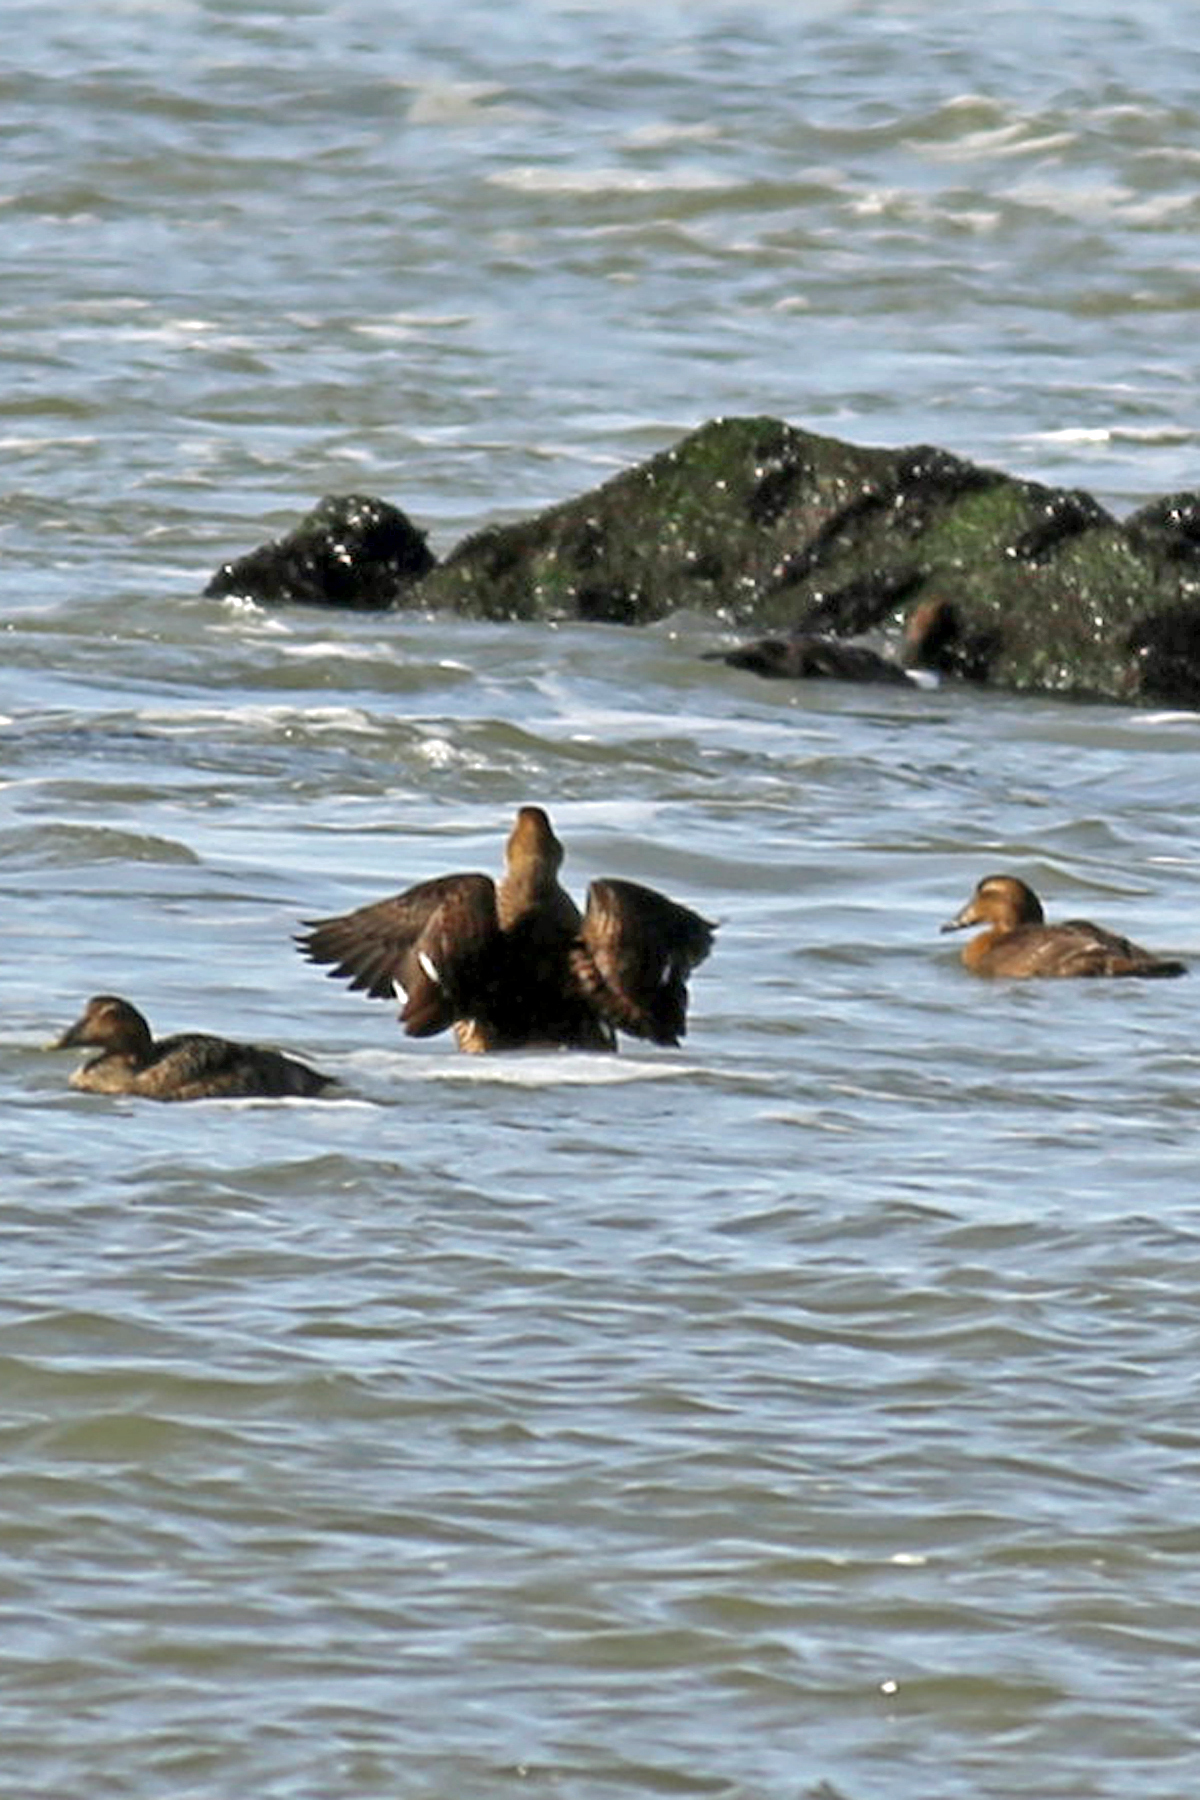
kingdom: Animalia
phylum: Chordata
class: Aves
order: Anseriformes
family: Anatidae
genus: Somateria
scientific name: Somateria mollissima
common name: Common eider
